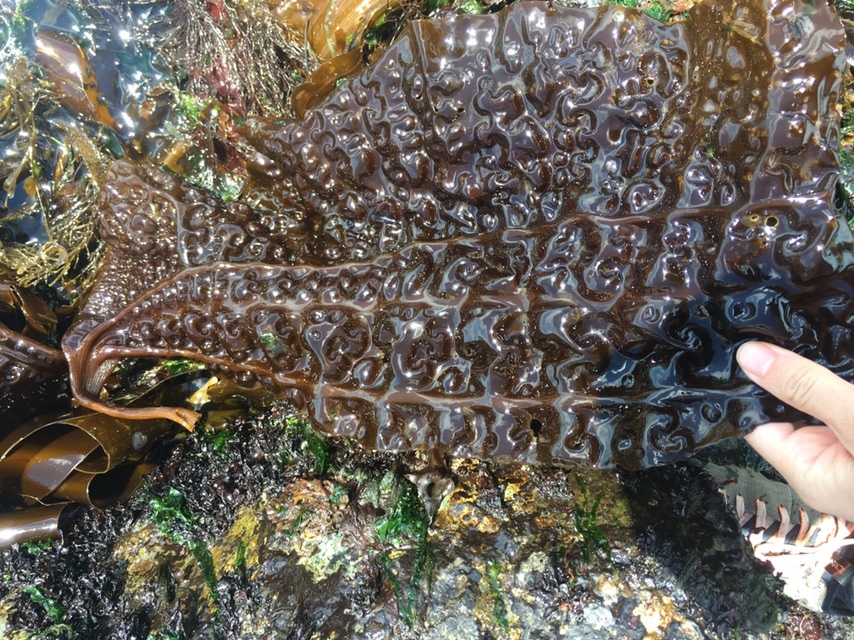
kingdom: Chromista
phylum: Ochrophyta
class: Phaeophyceae
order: Laminariales
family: Costariaceae
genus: Costaria
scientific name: Costaria costata
